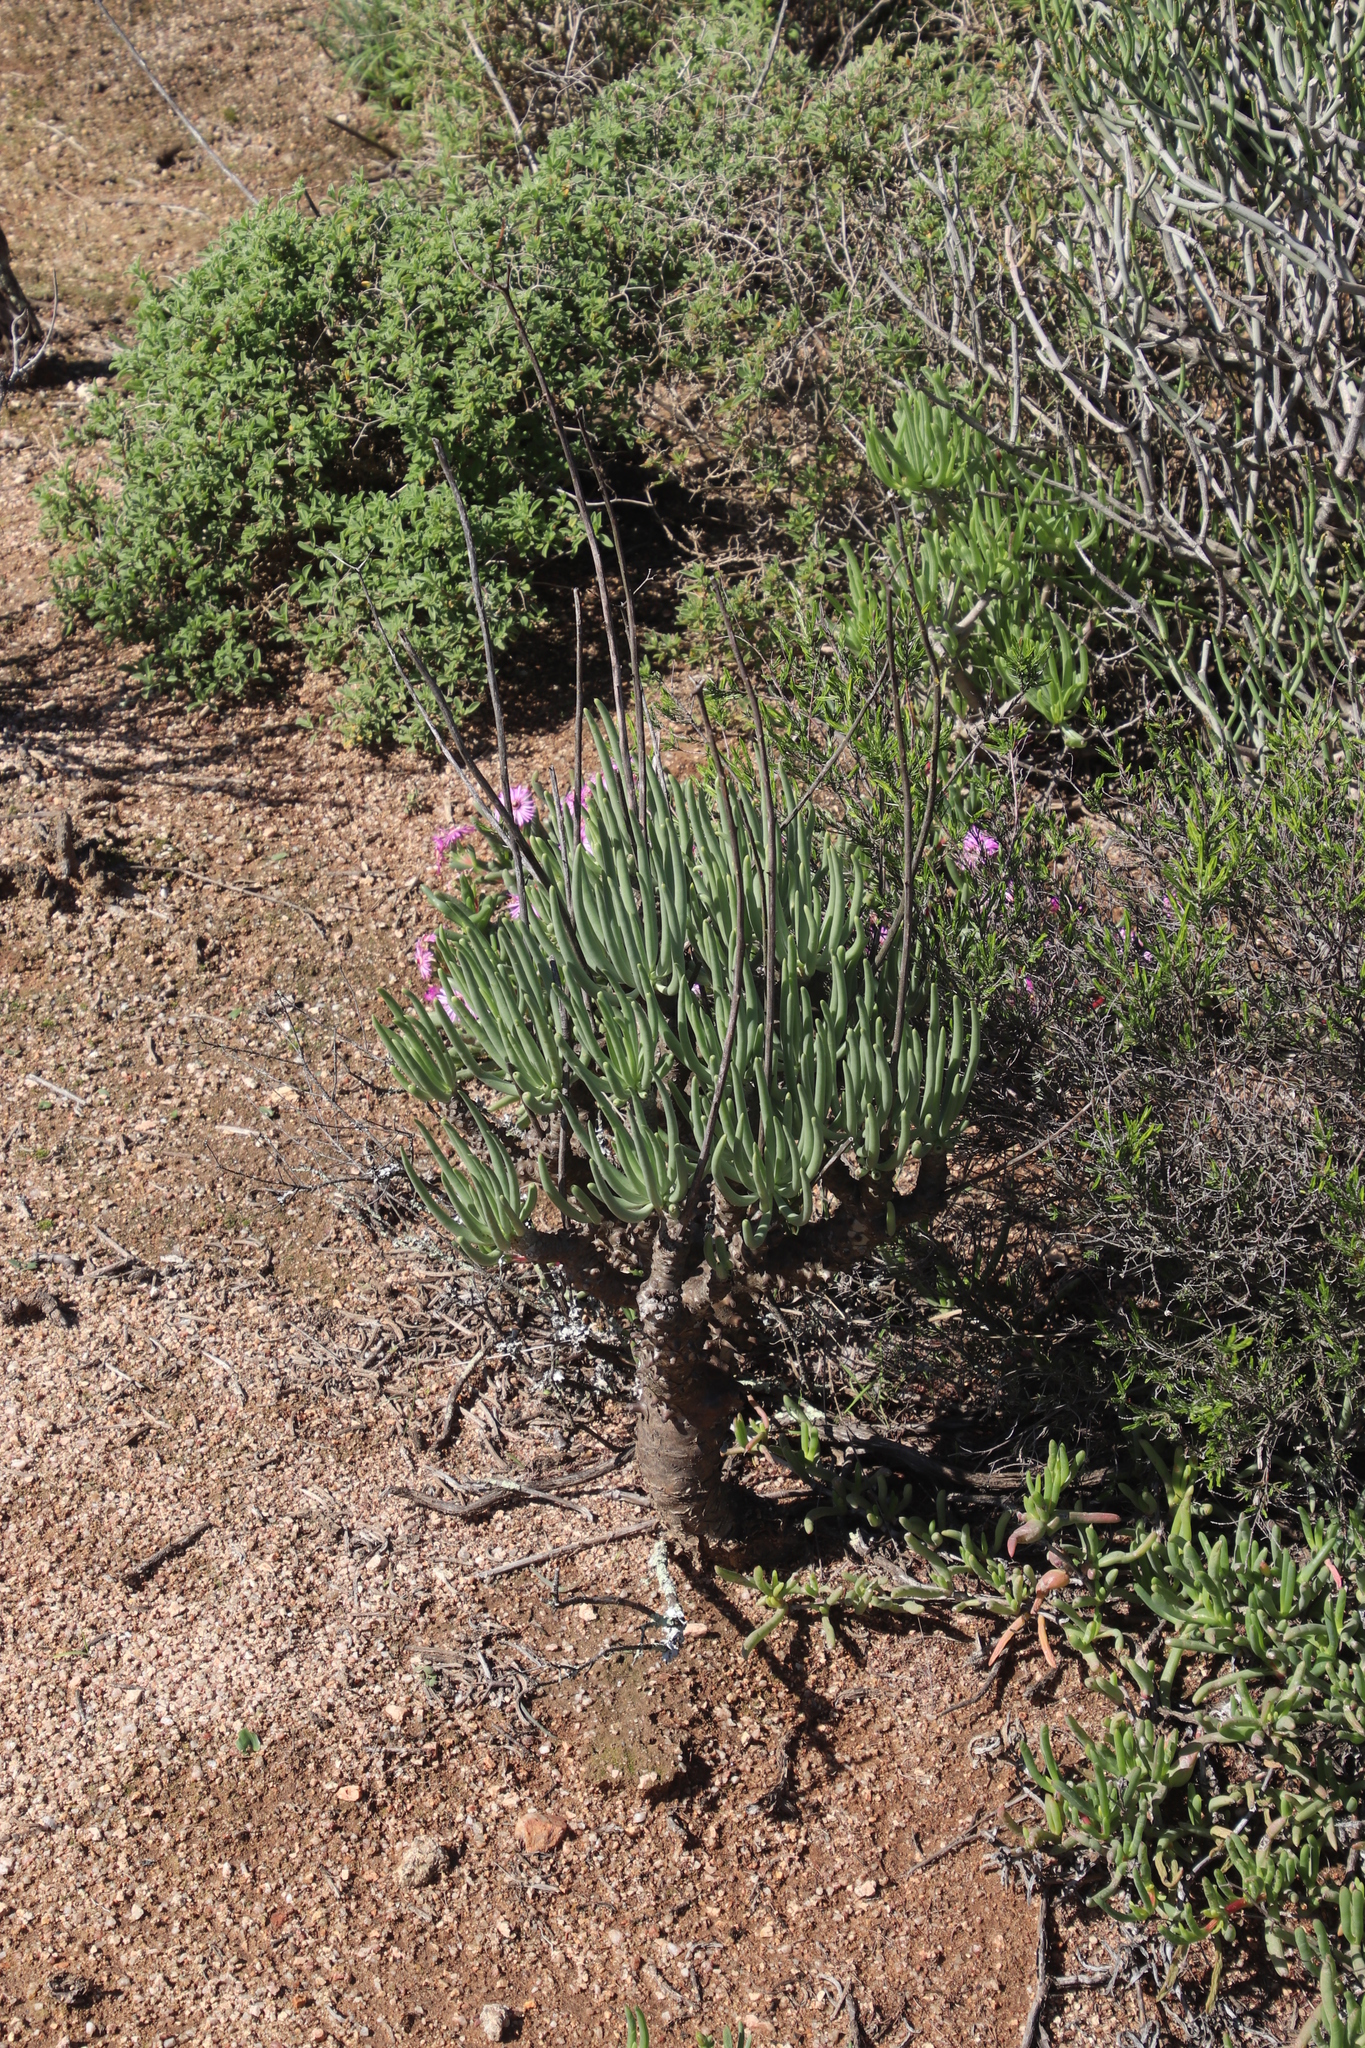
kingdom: Plantae
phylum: Tracheophyta
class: Magnoliopsida
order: Saxifragales
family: Crassulaceae
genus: Tylecodon
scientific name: Tylecodon wallichii
